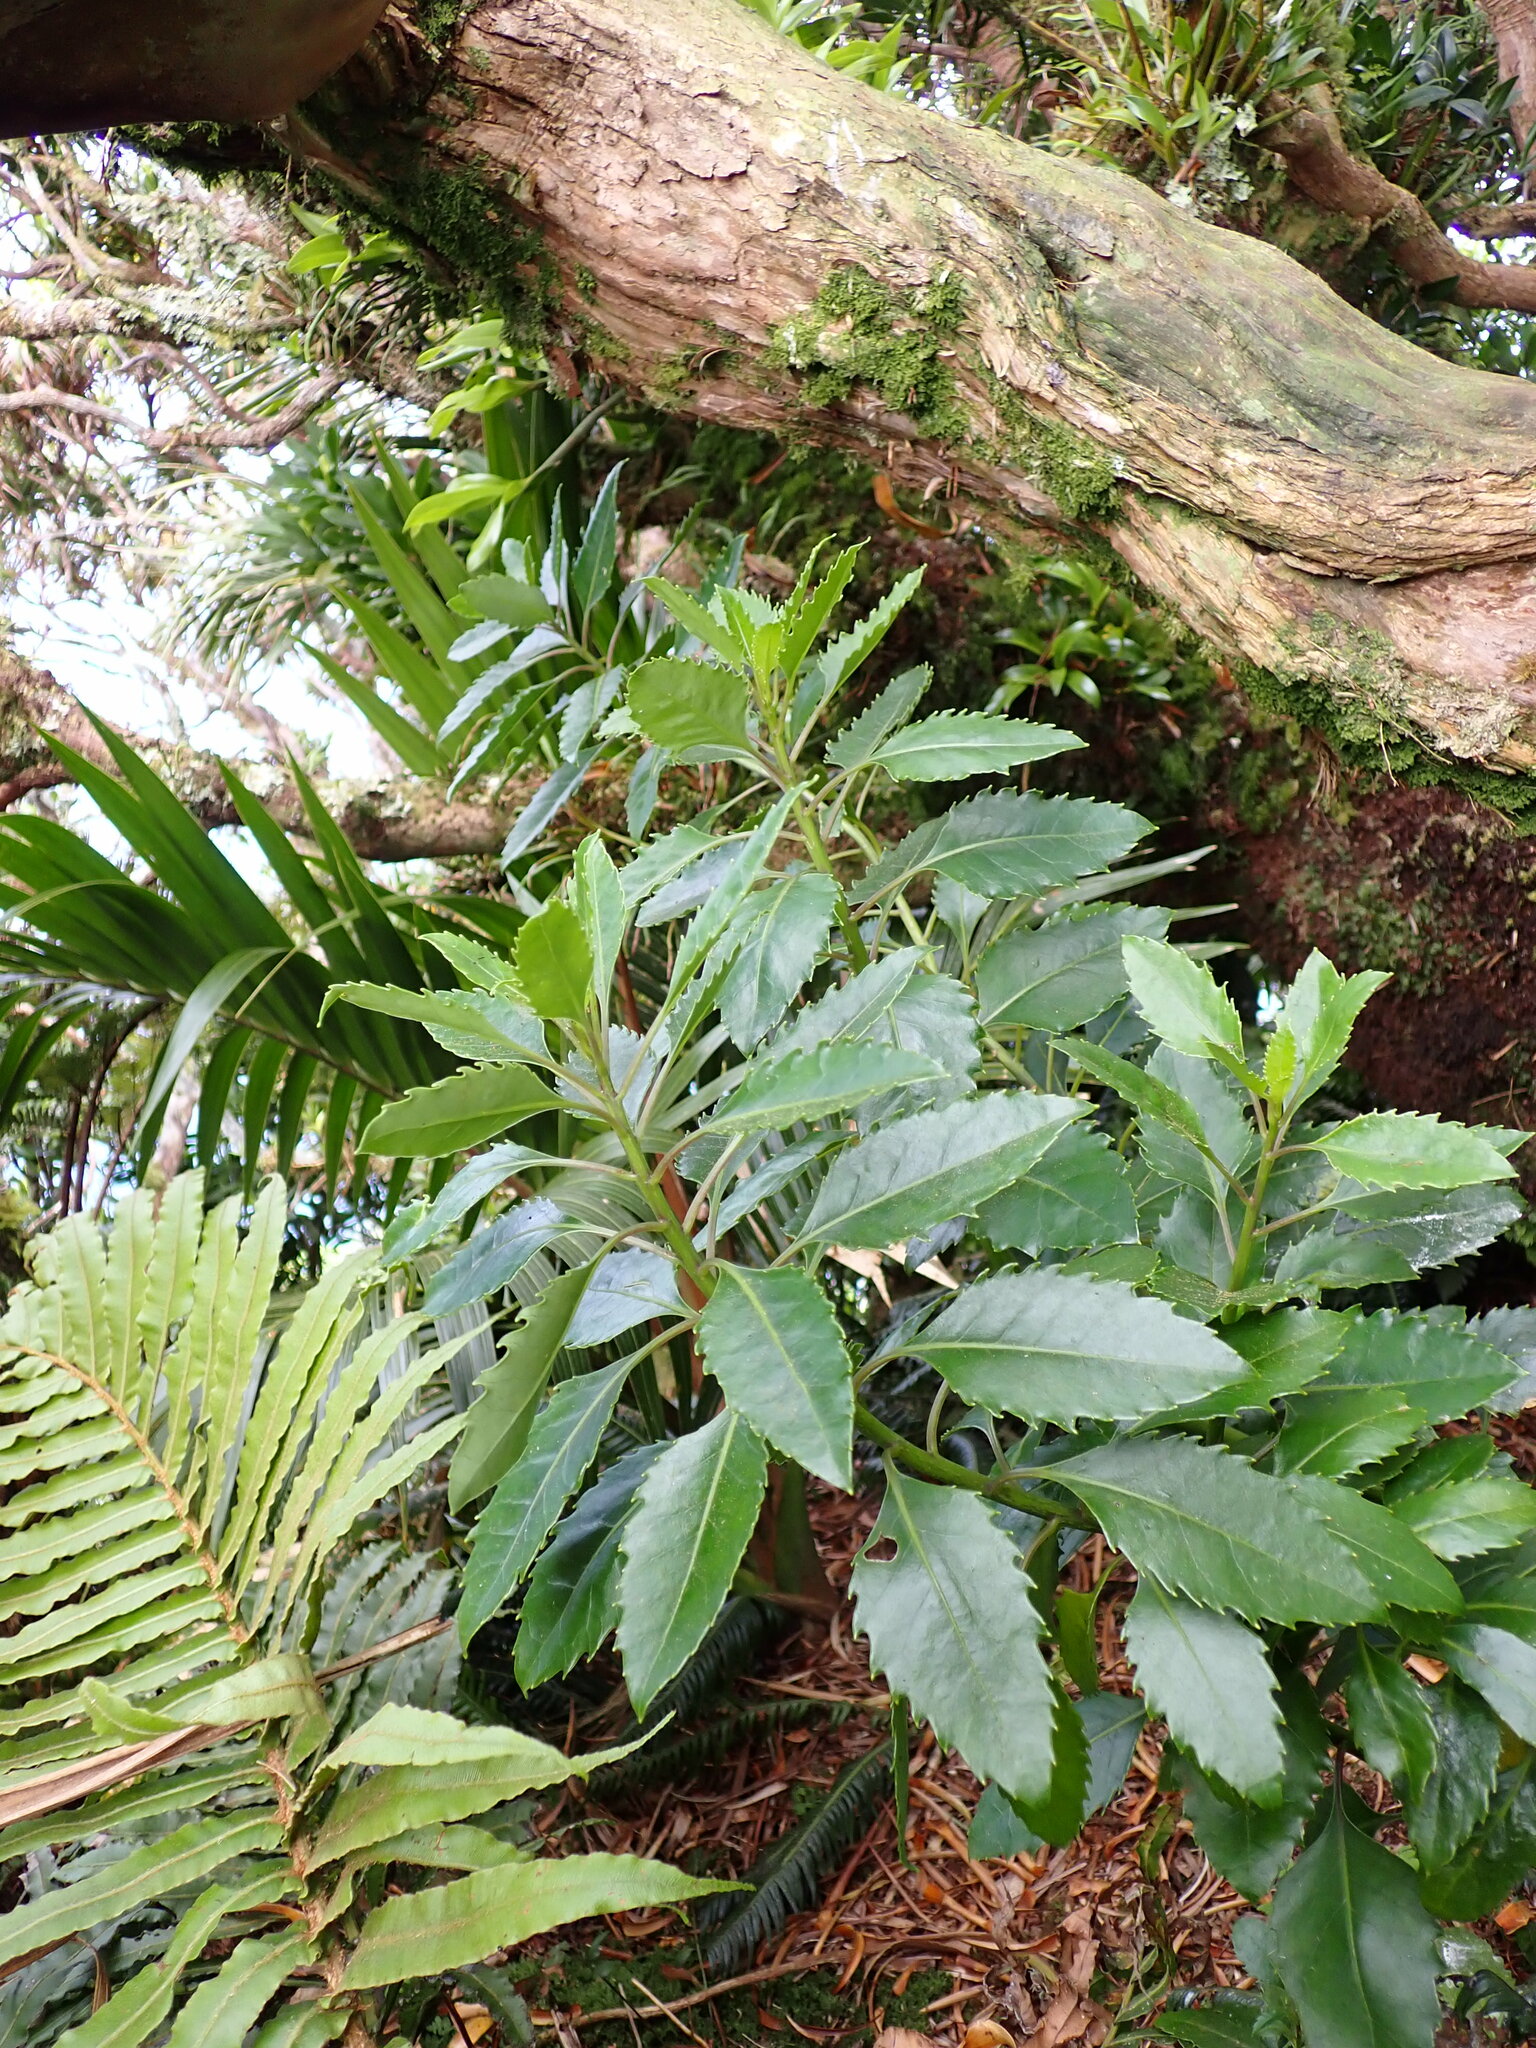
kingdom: Plantae
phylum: Tracheophyta
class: Magnoliopsida
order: Asterales
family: Asteraceae
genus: Lordhowea
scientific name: Lordhowea insularis
